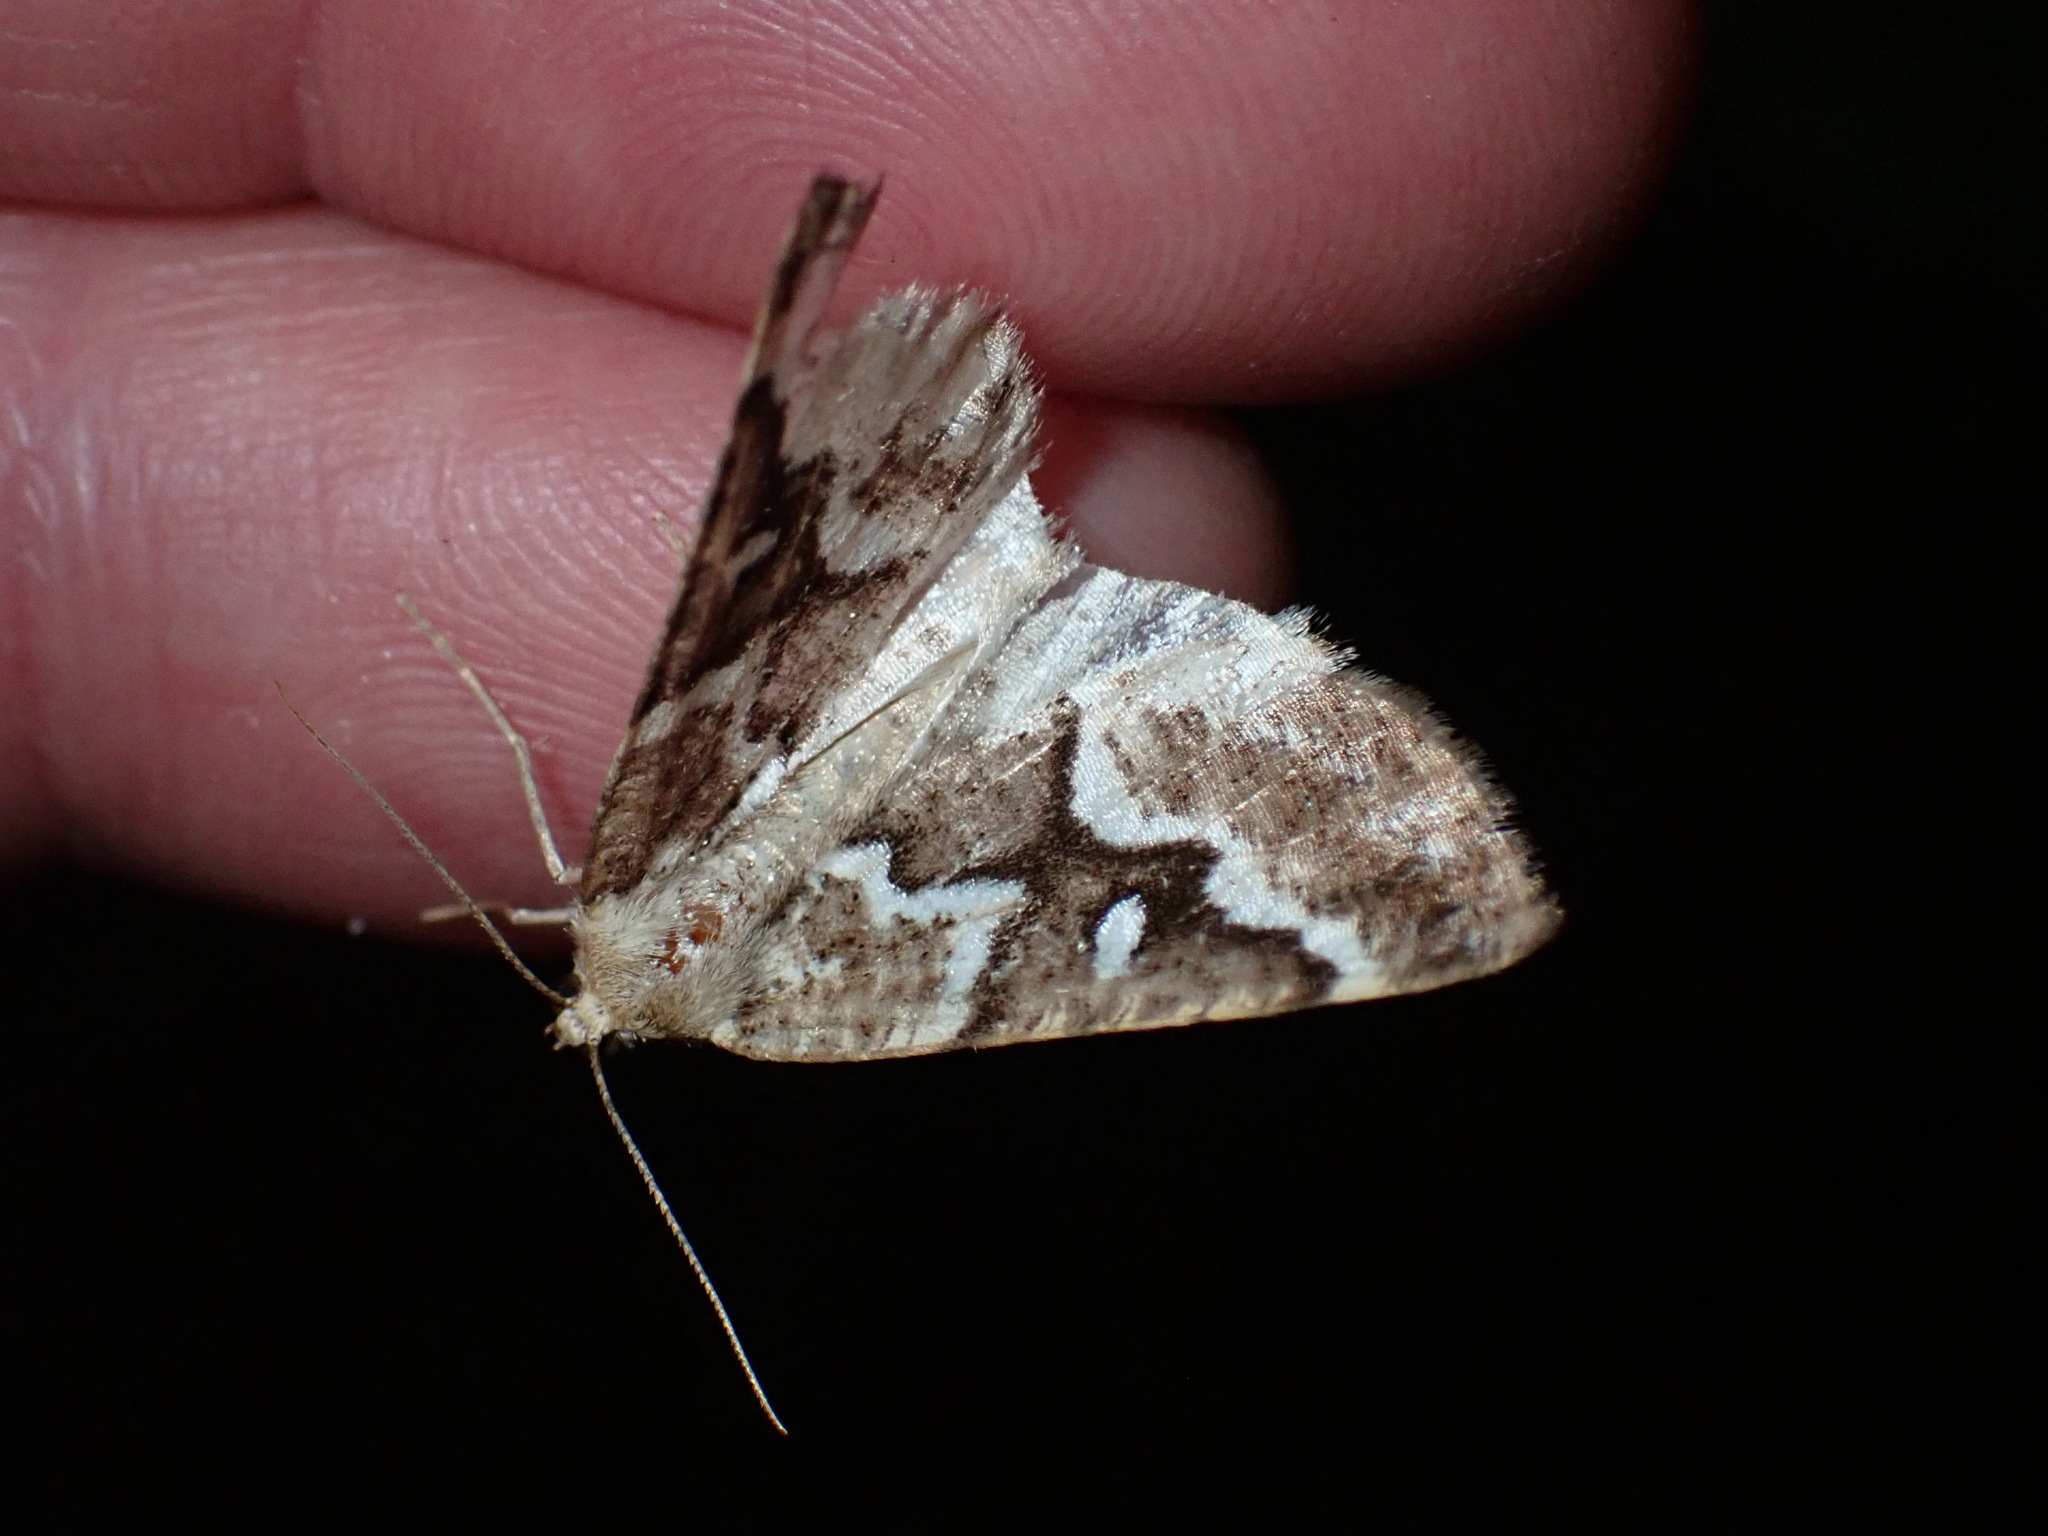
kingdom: Animalia
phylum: Arthropoda
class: Insecta
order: Lepidoptera
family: Geometridae
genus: Caripeta
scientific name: Caripeta divisata
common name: Gray spruce looper
